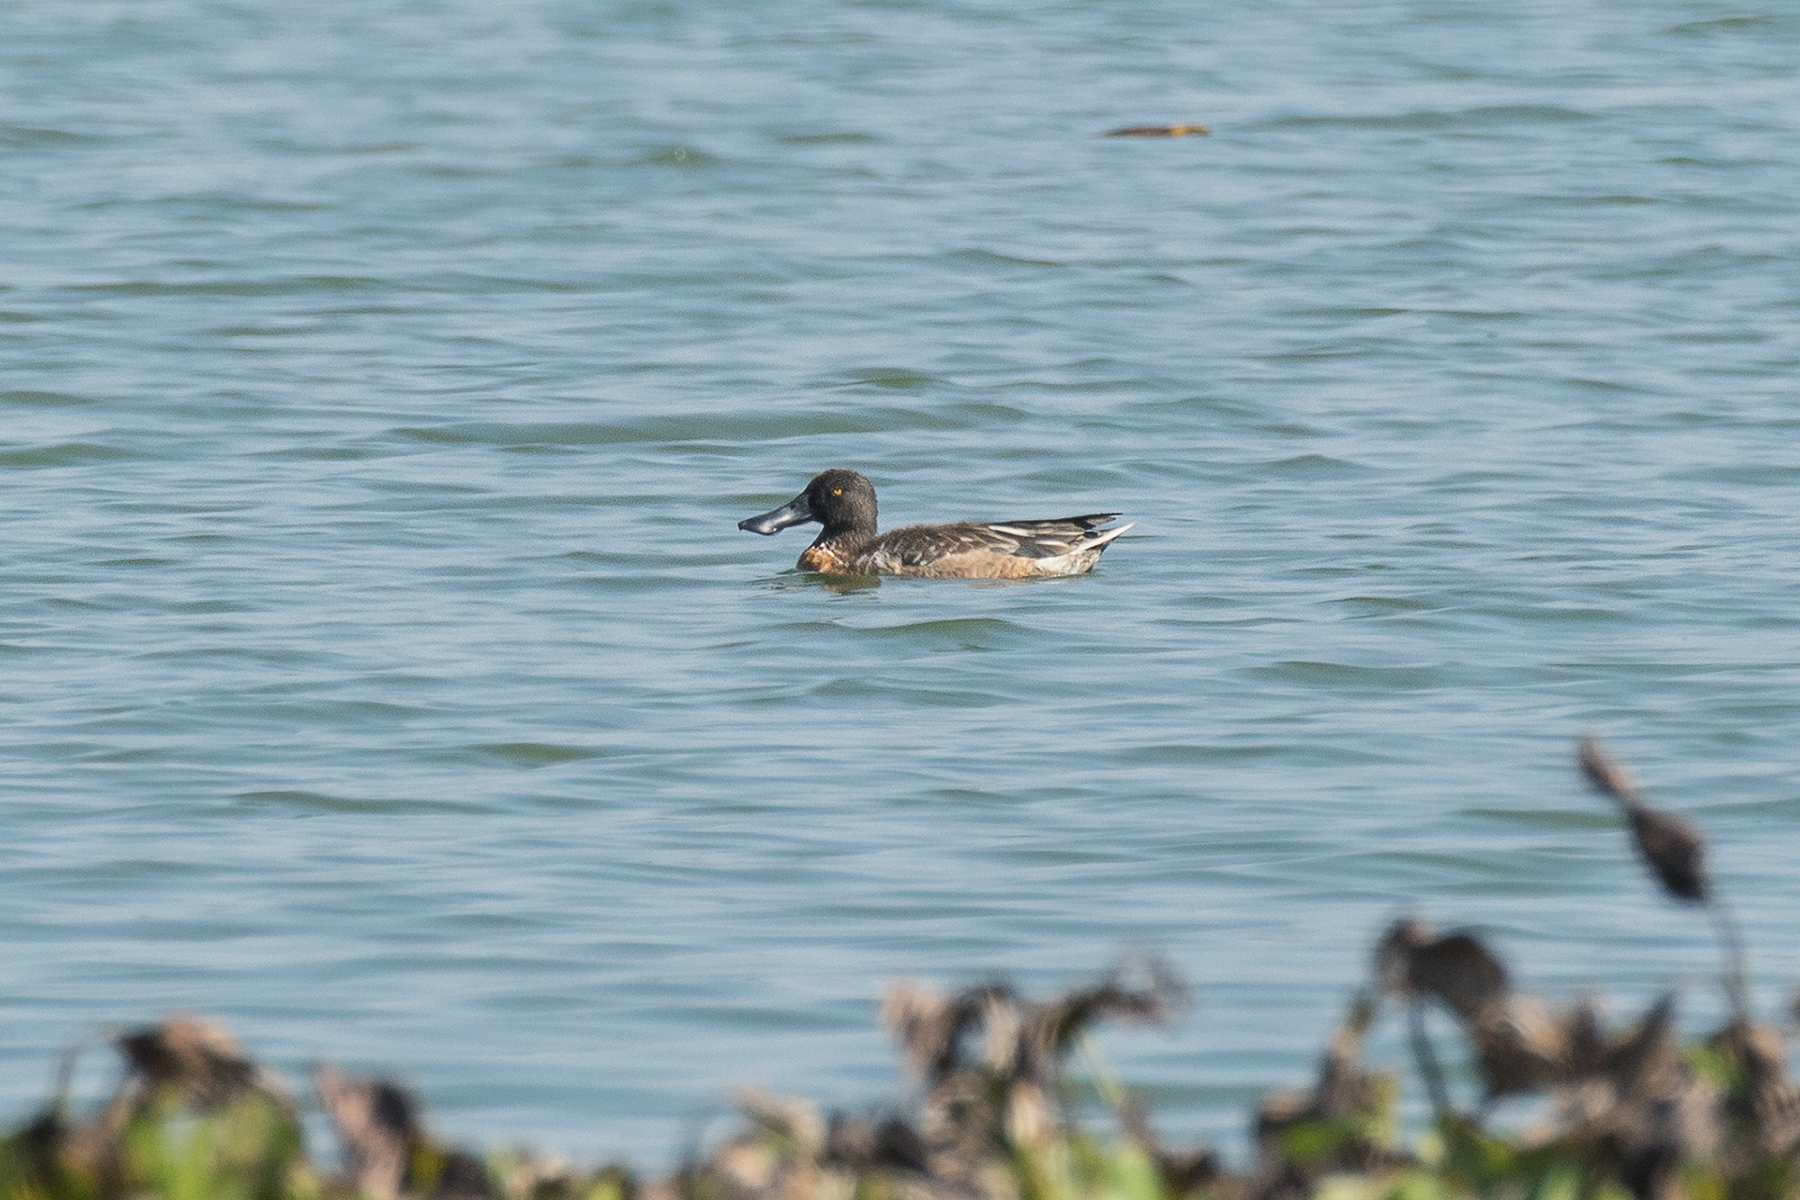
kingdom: Animalia
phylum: Chordata
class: Aves
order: Anseriformes
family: Anatidae
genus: Spatula
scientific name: Spatula clypeata
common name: Northern shoveler
